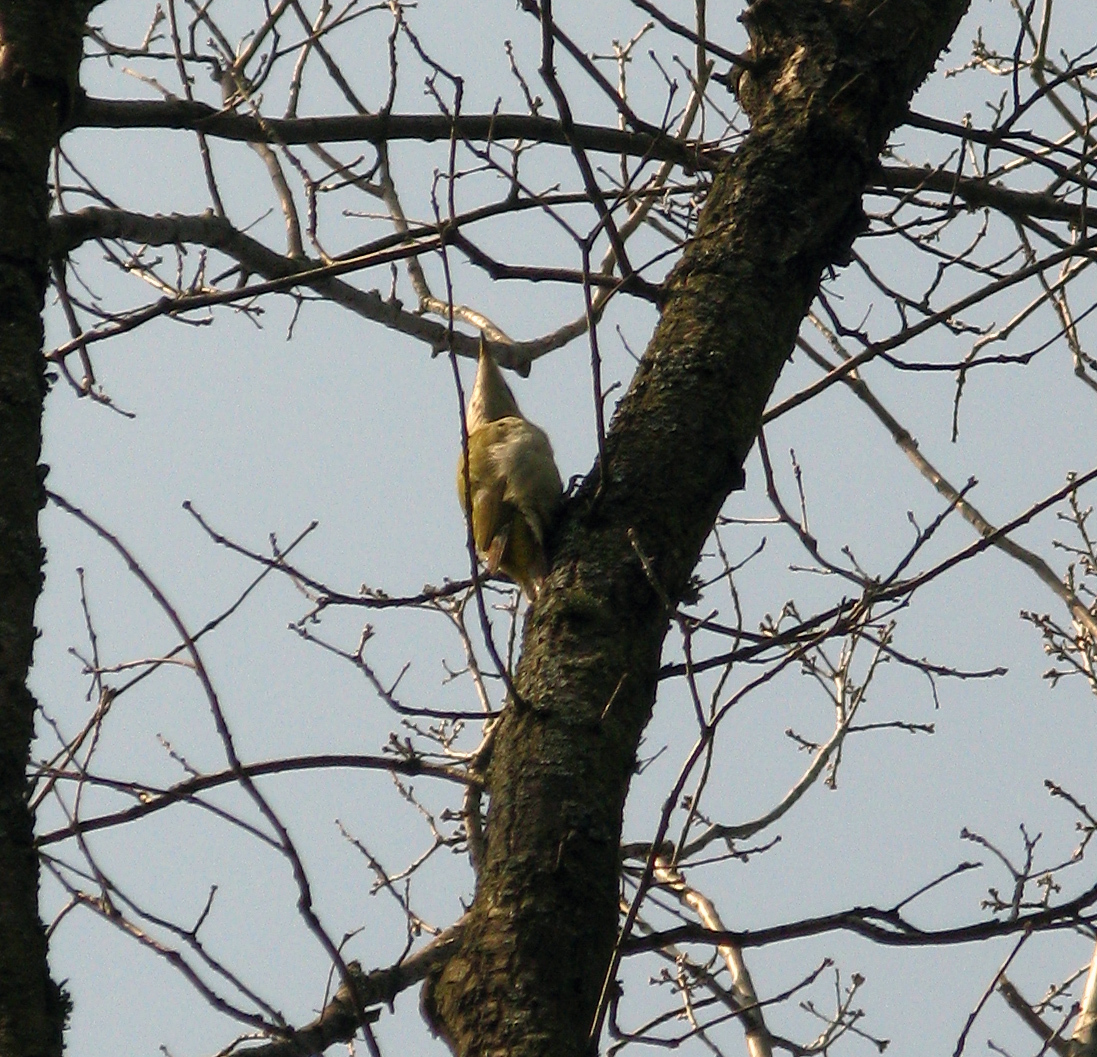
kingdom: Animalia
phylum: Chordata
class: Aves
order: Piciformes
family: Picidae
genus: Picus
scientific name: Picus canus
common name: Grey-headed woodpecker
